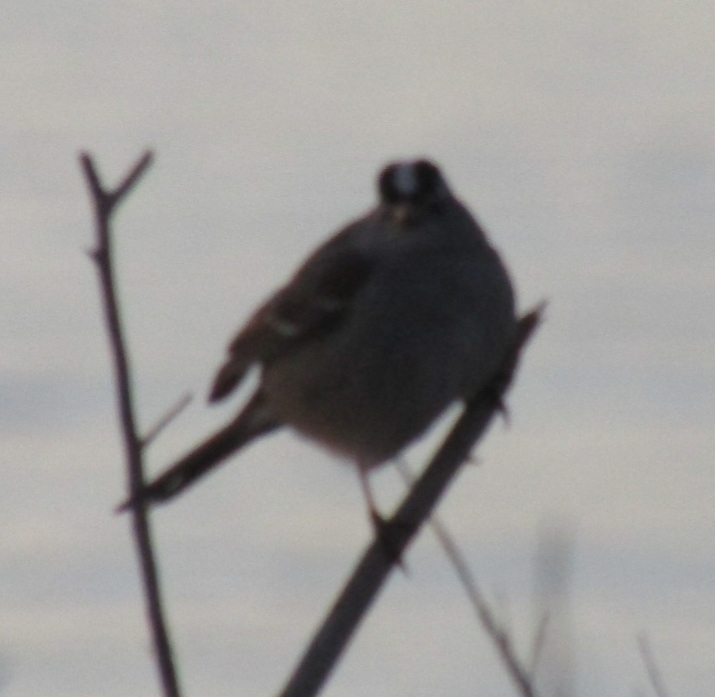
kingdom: Animalia
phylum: Chordata
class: Aves
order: Passeriformes
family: Passerellidae
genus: Zonotrichia
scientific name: Zonotrichia leucophrys
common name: White-crowned sparrow
